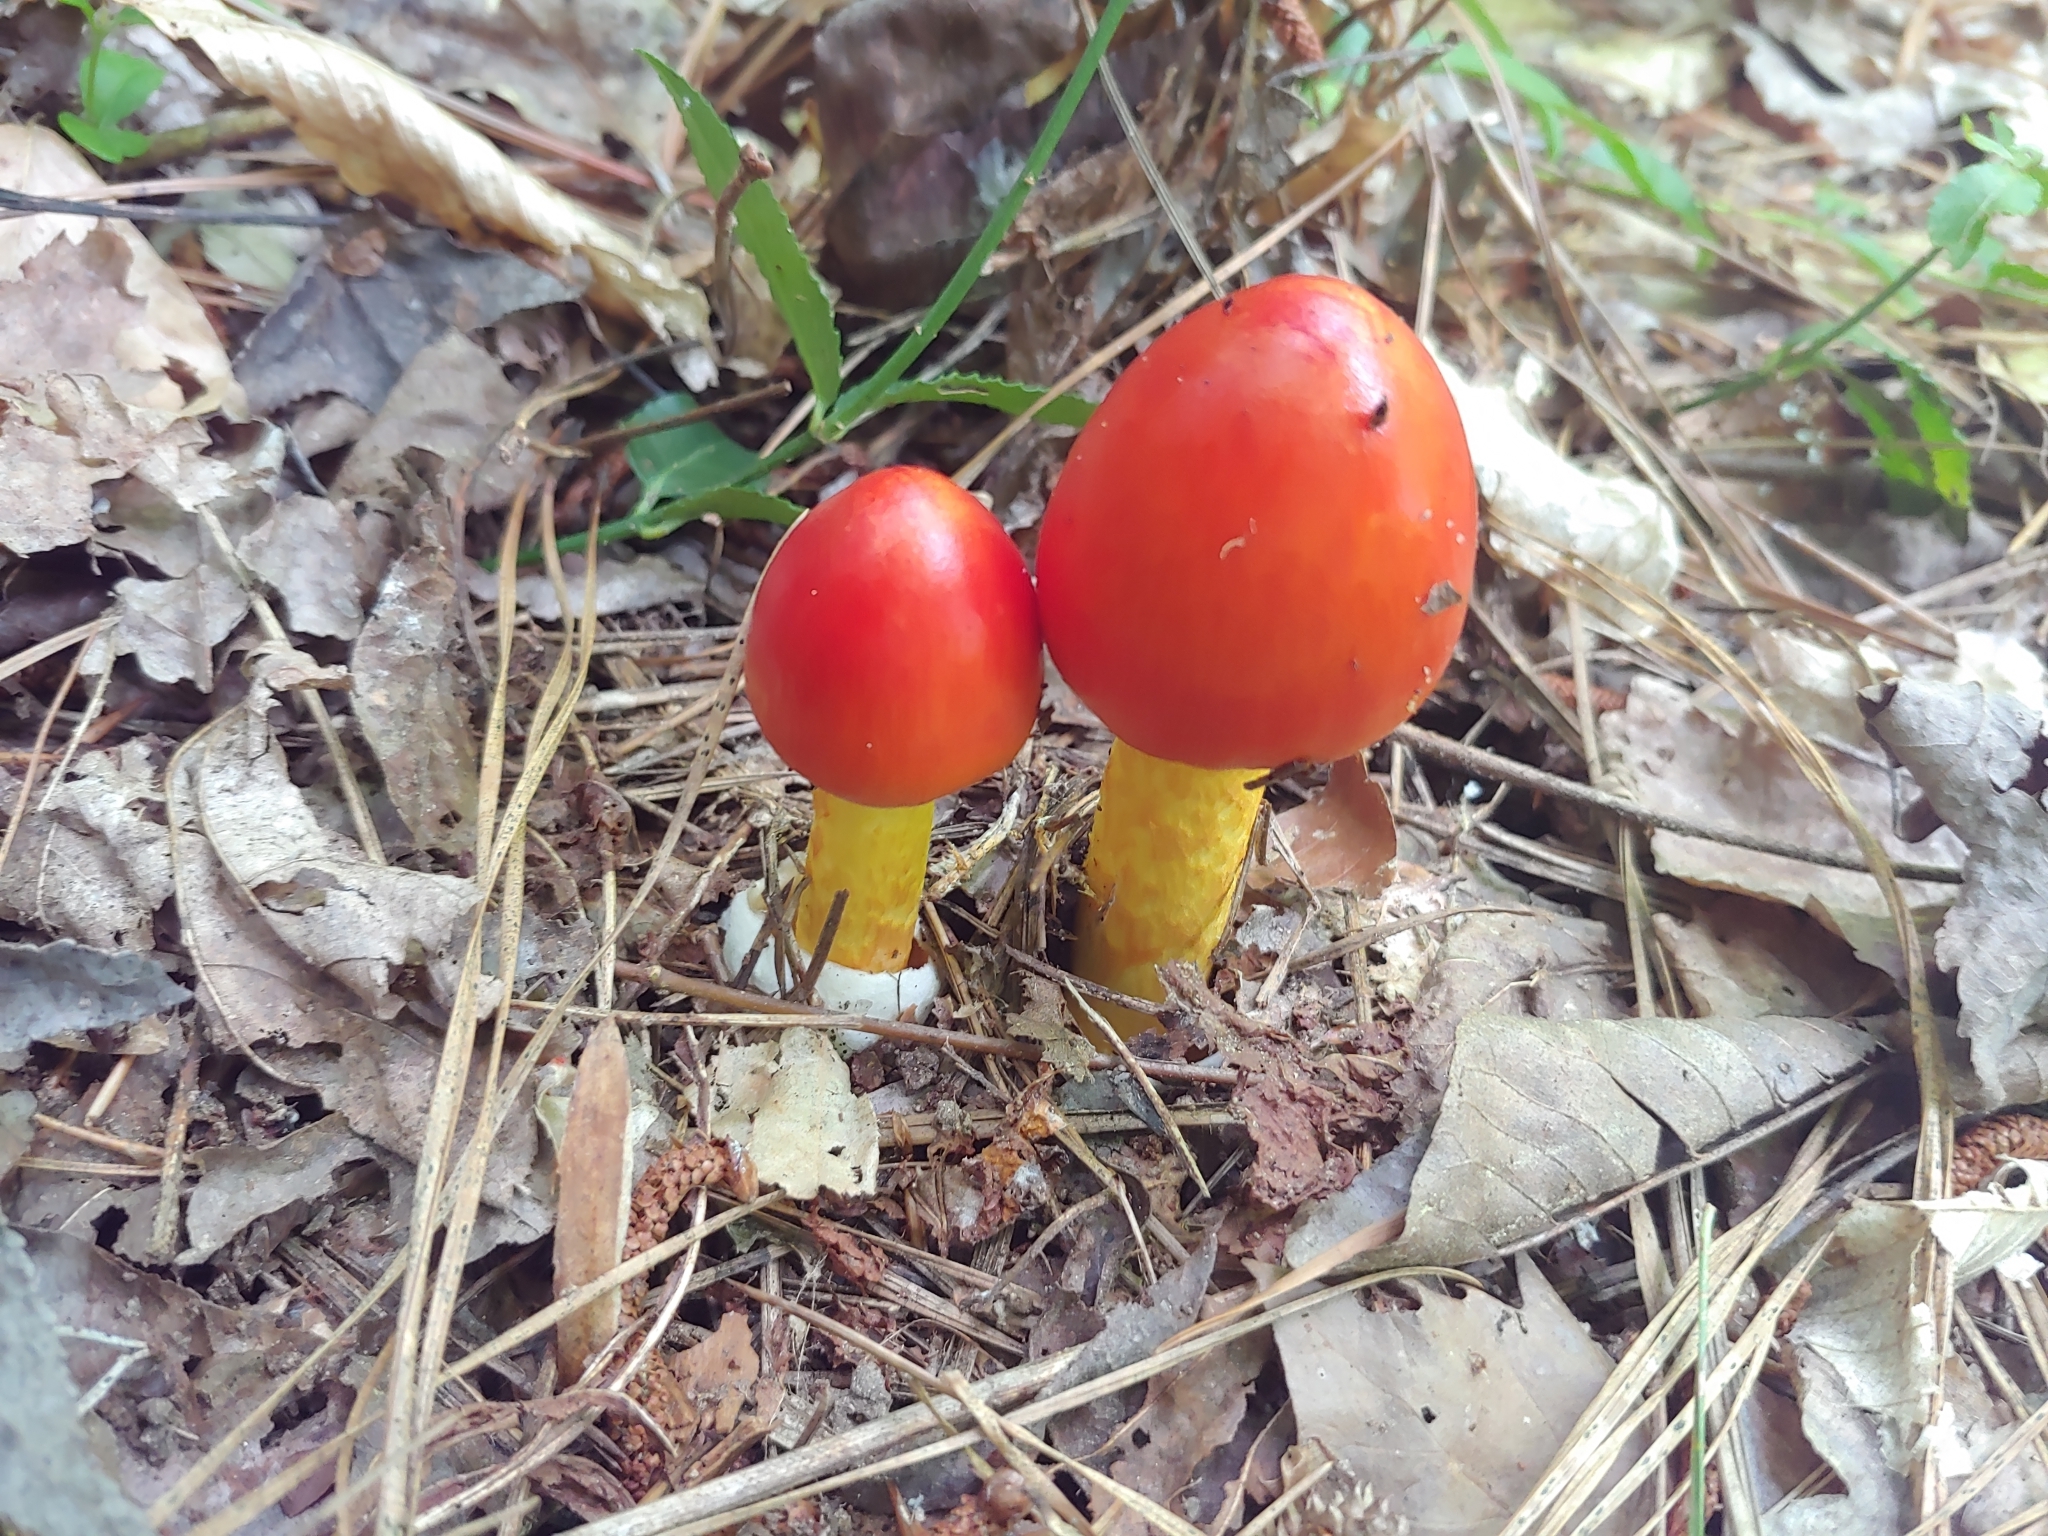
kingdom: Fungi
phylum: Basidiomycota
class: Agaricomycetes
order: Agaricales
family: Amanitaceae
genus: Amanita
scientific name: Amanita jacksonii
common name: Jackson's slender caesar
